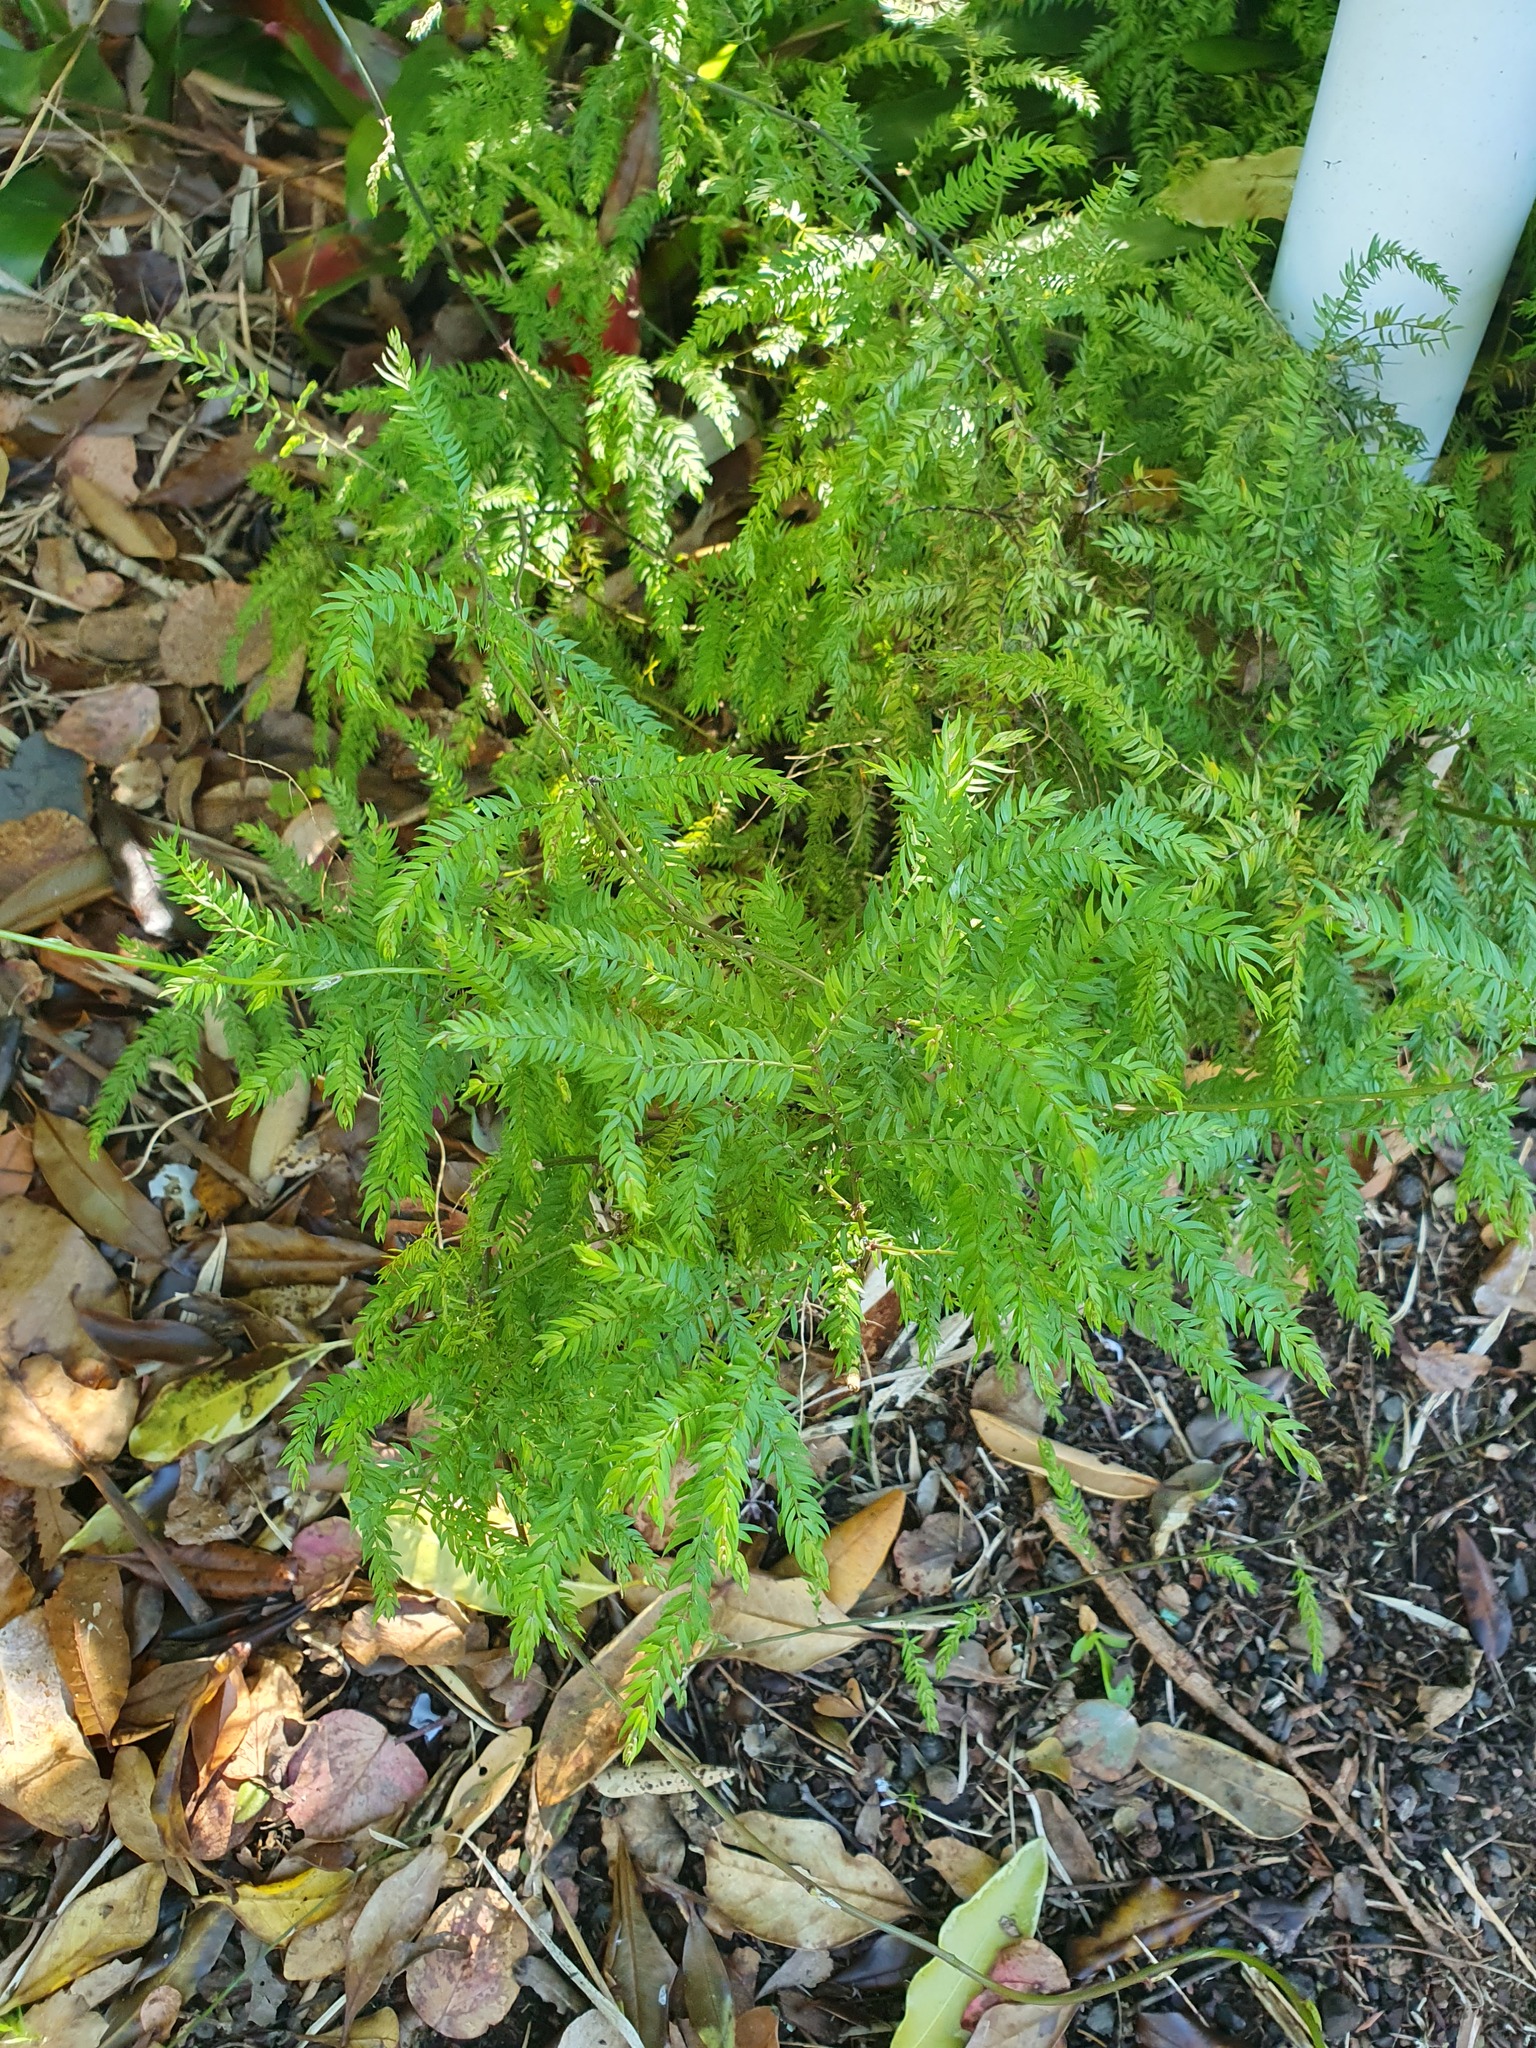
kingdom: Plantae
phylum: Tracheophyta
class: Liliopsida
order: Asparagales
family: Asparagaceae
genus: Asparagus
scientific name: Asparagus scandens
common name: Asparagus-fern
